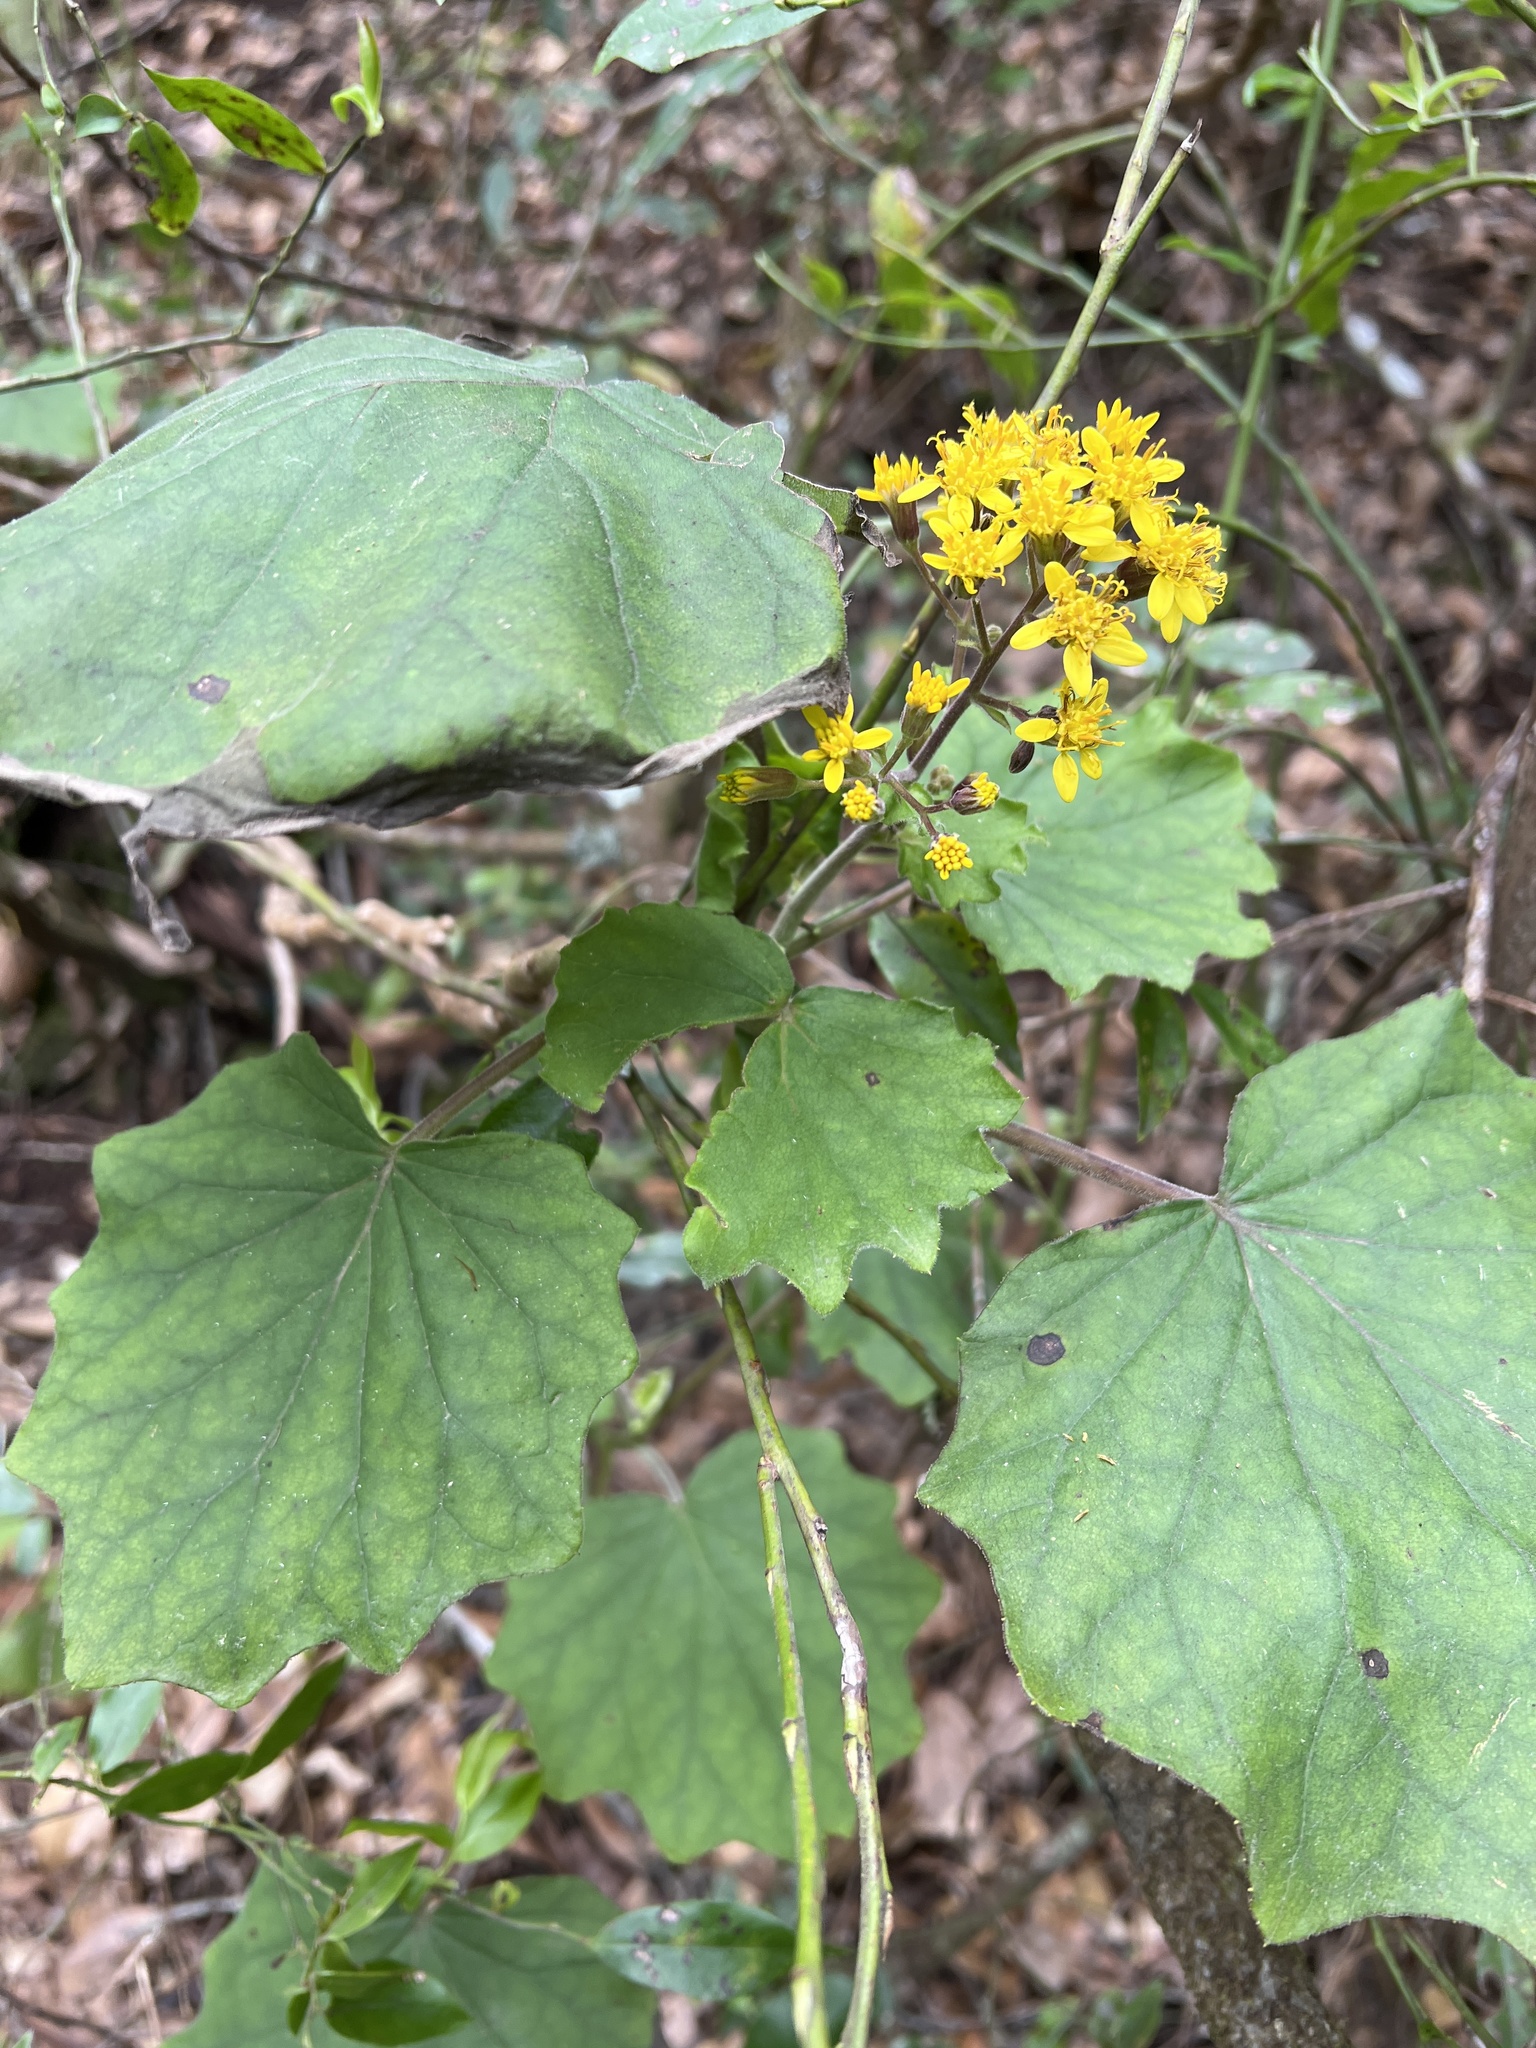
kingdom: Plantae
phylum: Tracheophyta
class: Magnoliopsida
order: Asterales
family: Asteraceae
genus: Roldana
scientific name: Roldana petasitis
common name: California-geranium
